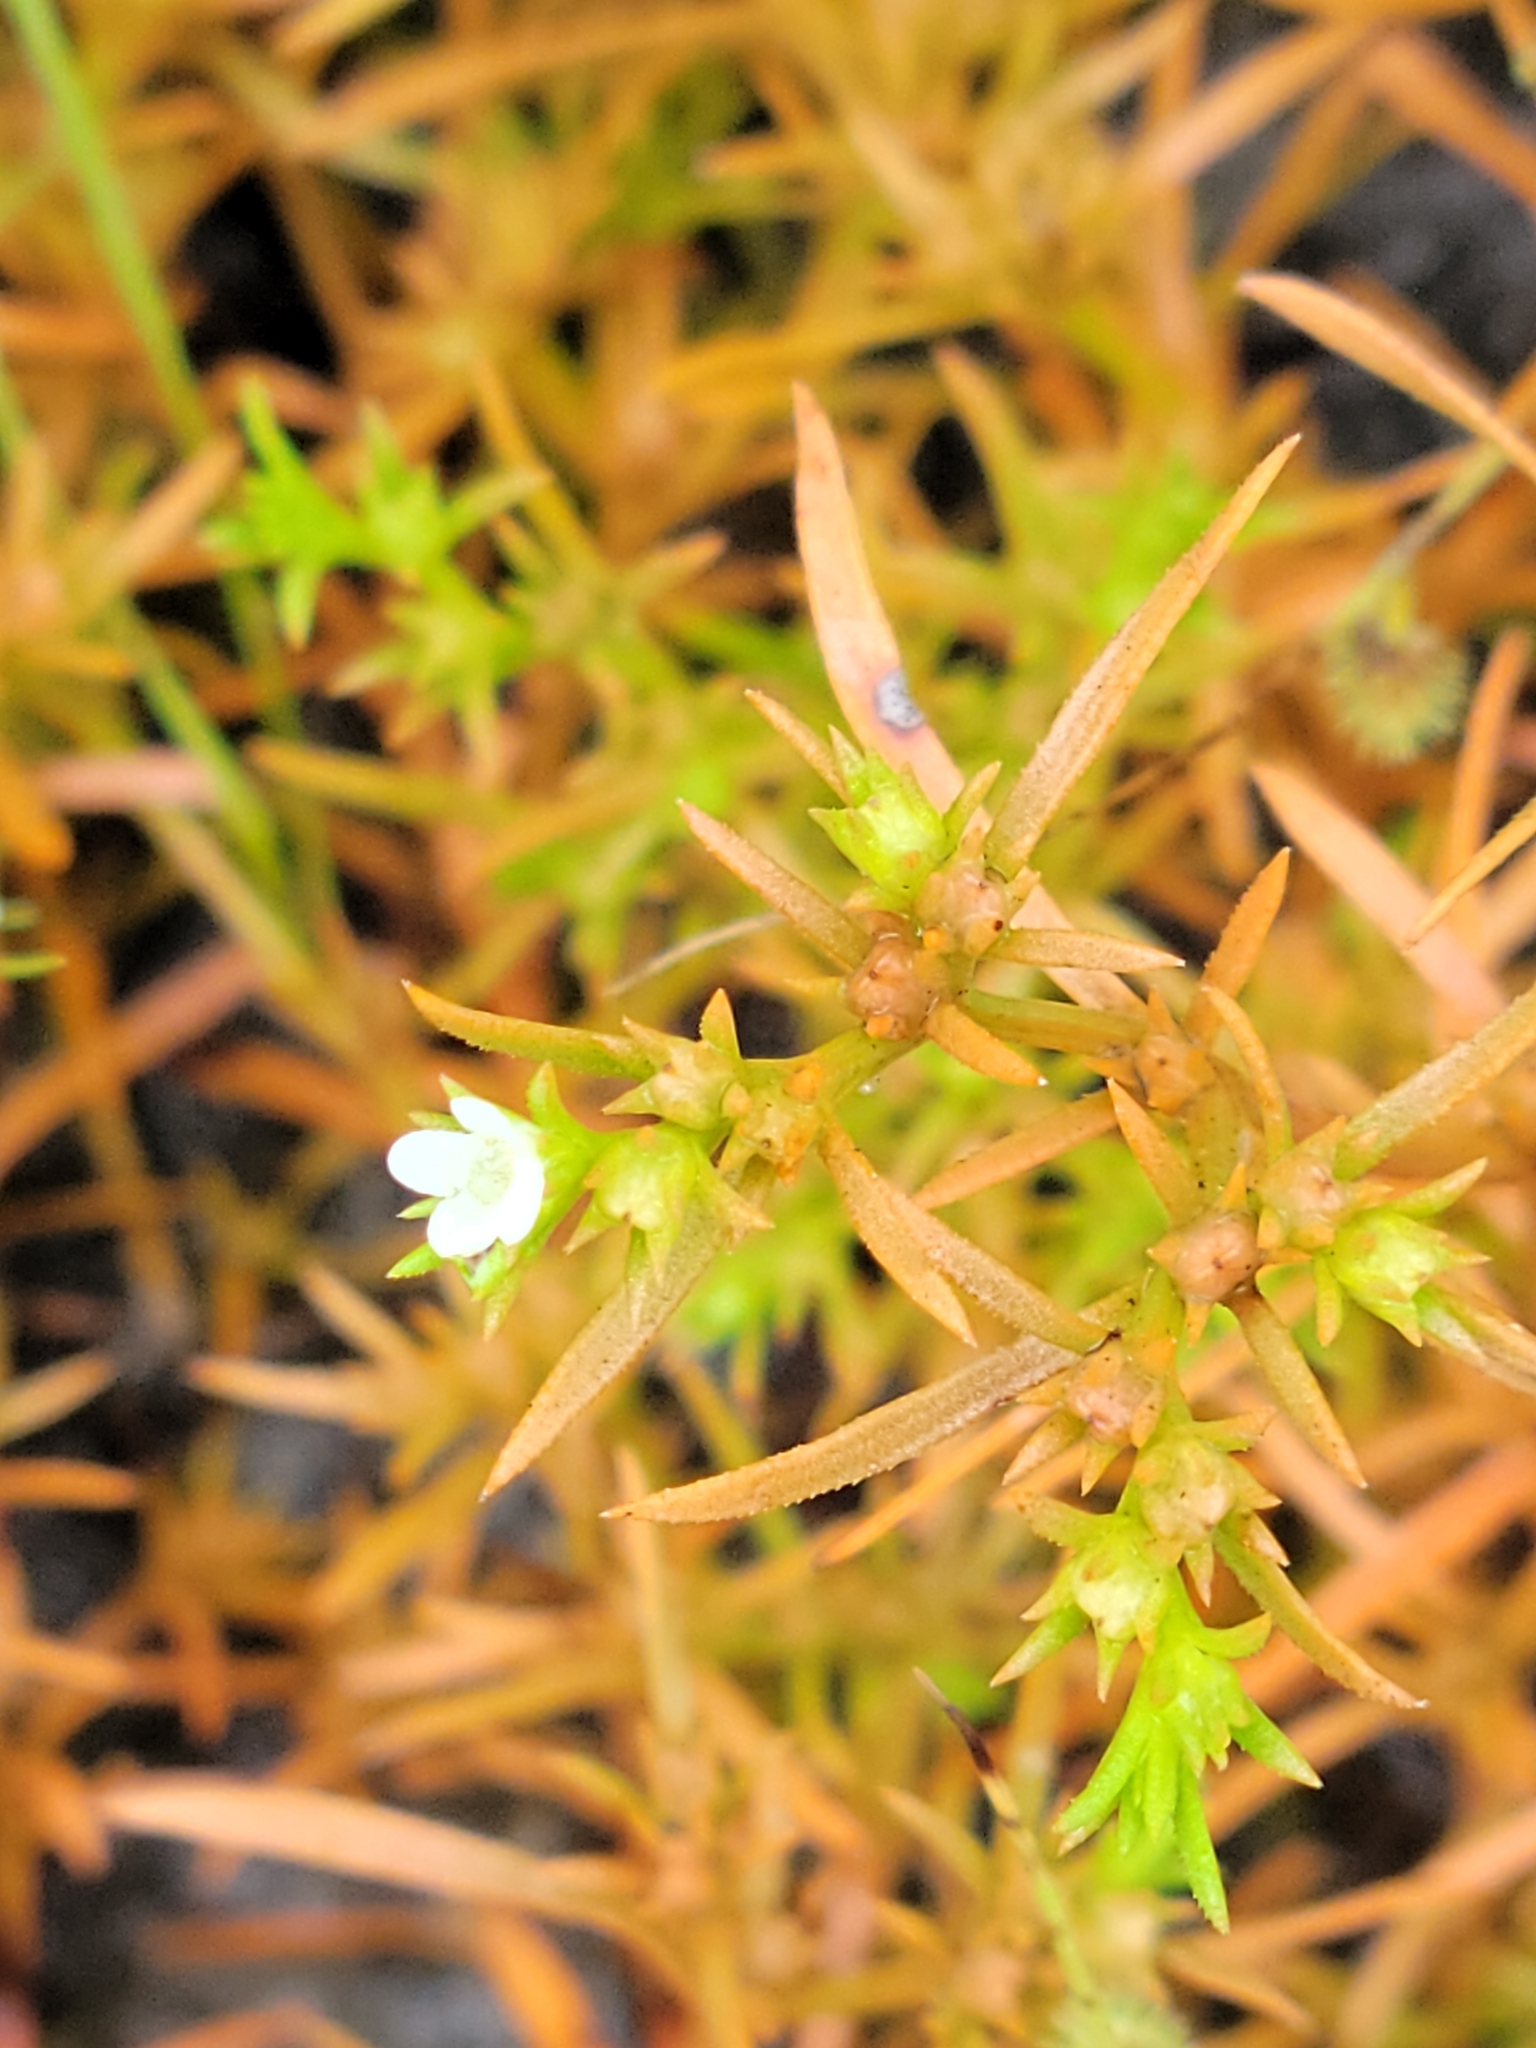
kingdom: Plantae
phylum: Tracheophyta
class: Magnoliopsida
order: Lamiales
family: Tetrachondraceae
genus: Polypremum
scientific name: Polypremum procumbens
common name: Juniper-leaf
